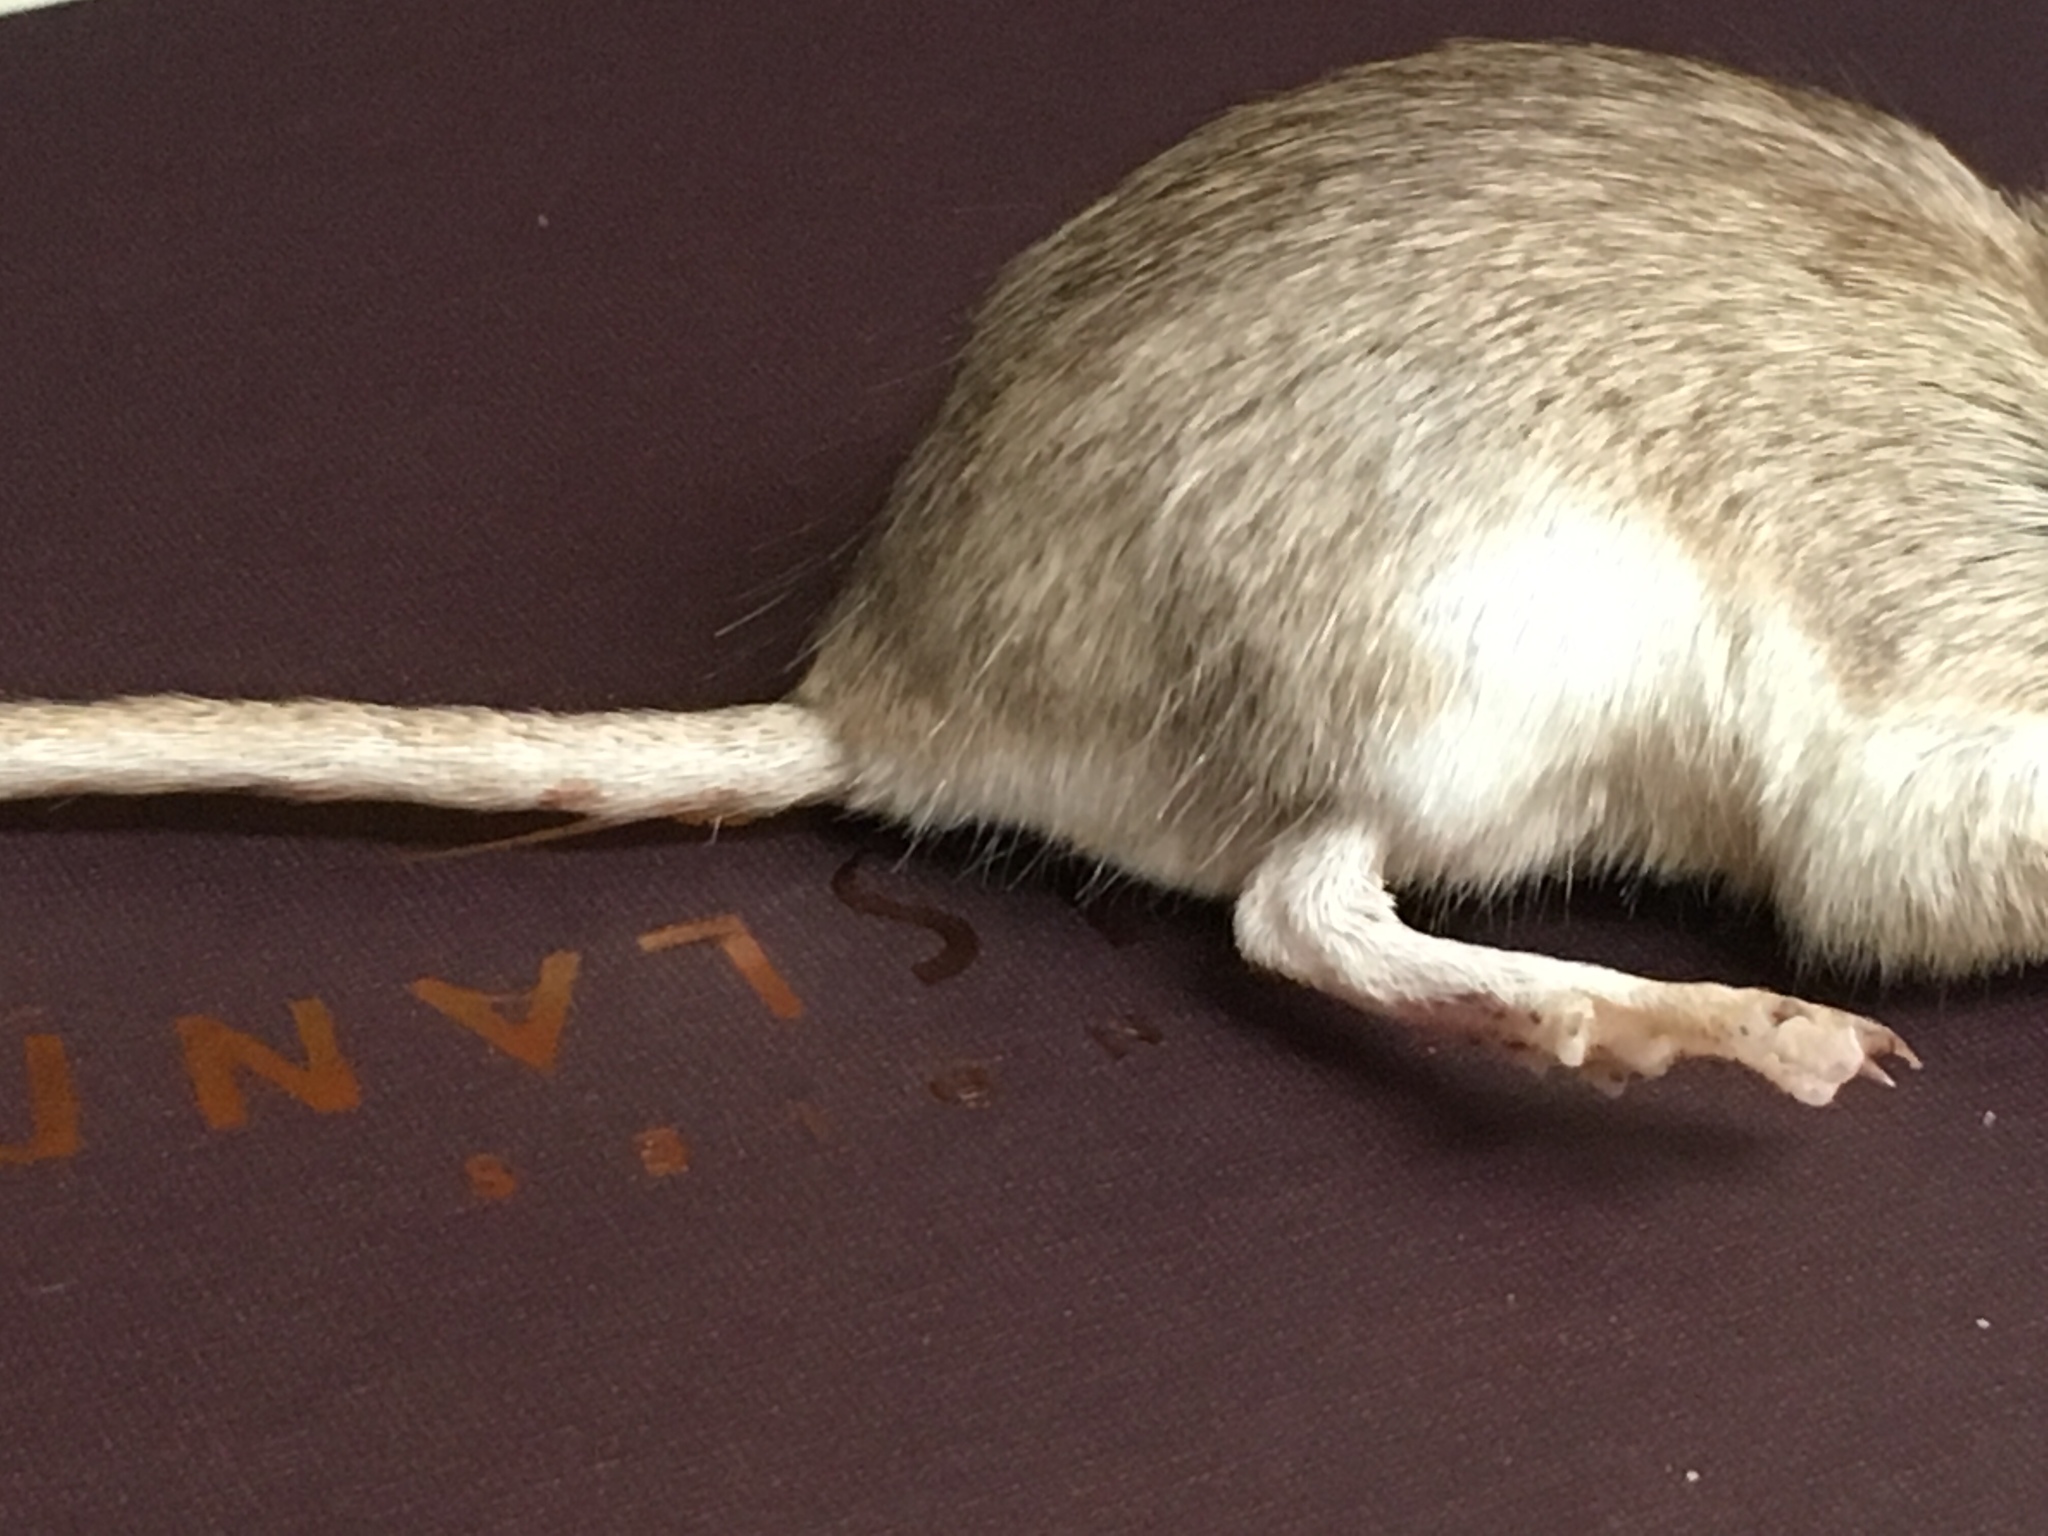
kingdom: Animalia
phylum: Chordata
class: Mammalia
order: Rodentia
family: Heteromyidae
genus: Chaetodipus
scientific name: Chaetodipus penicillatus
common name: Desert pocket mouse
